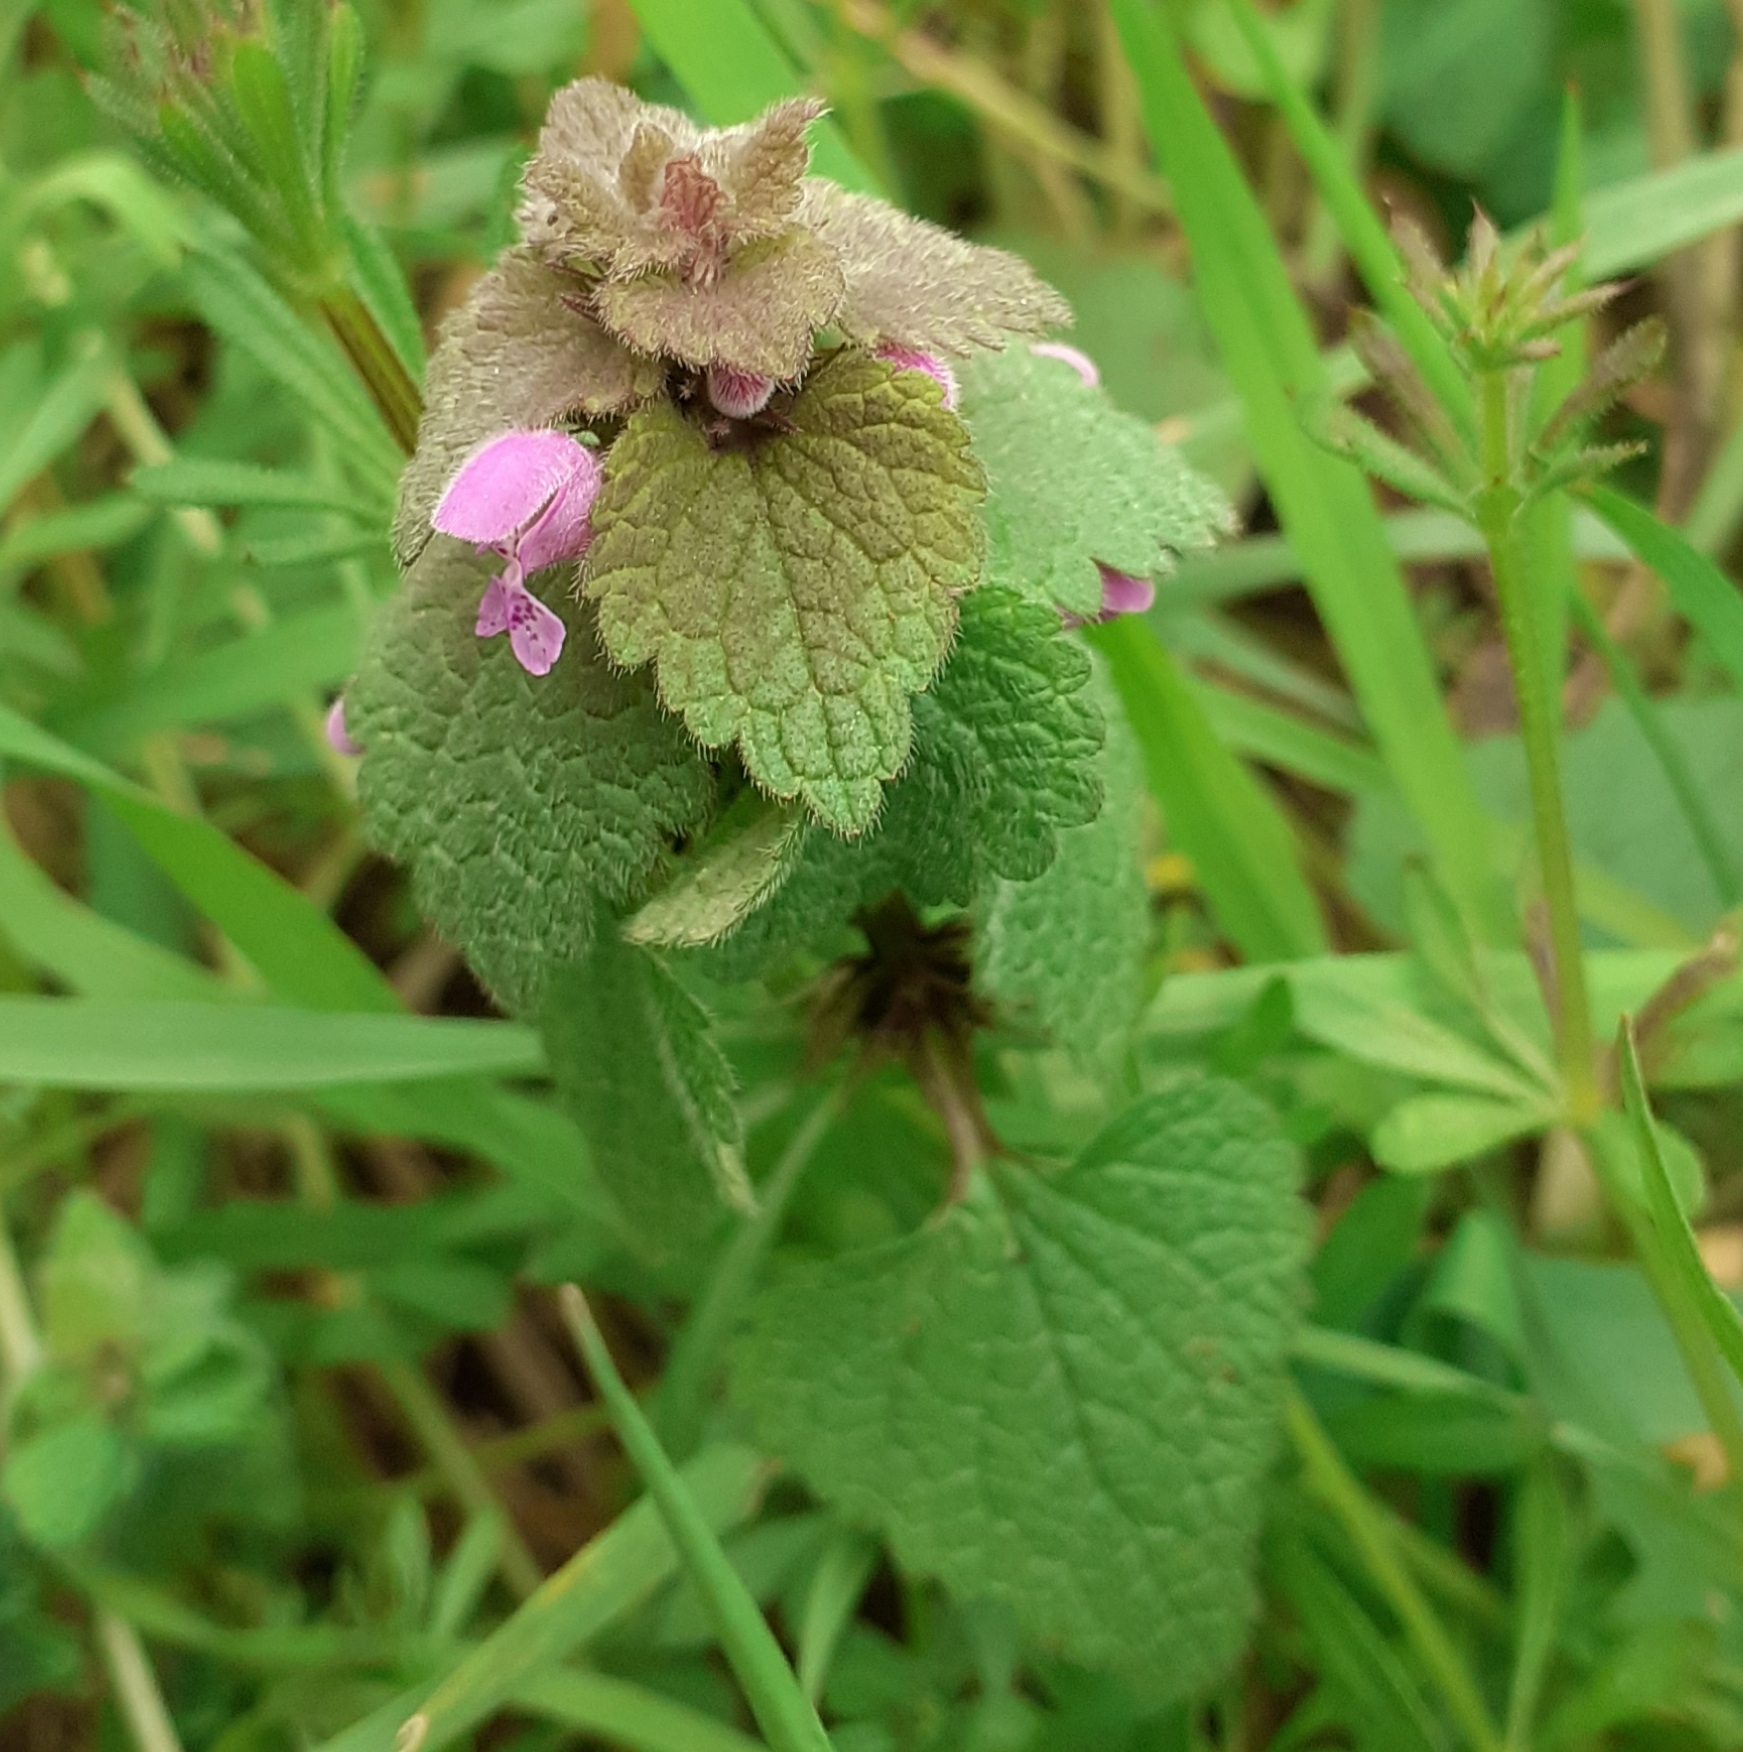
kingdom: Plantae
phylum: Tracheophyta
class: Magnoliopsida
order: Lamiales
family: Lamiaceae
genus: Lamium
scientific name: Lamium purpureum
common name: Red dead-nettle
